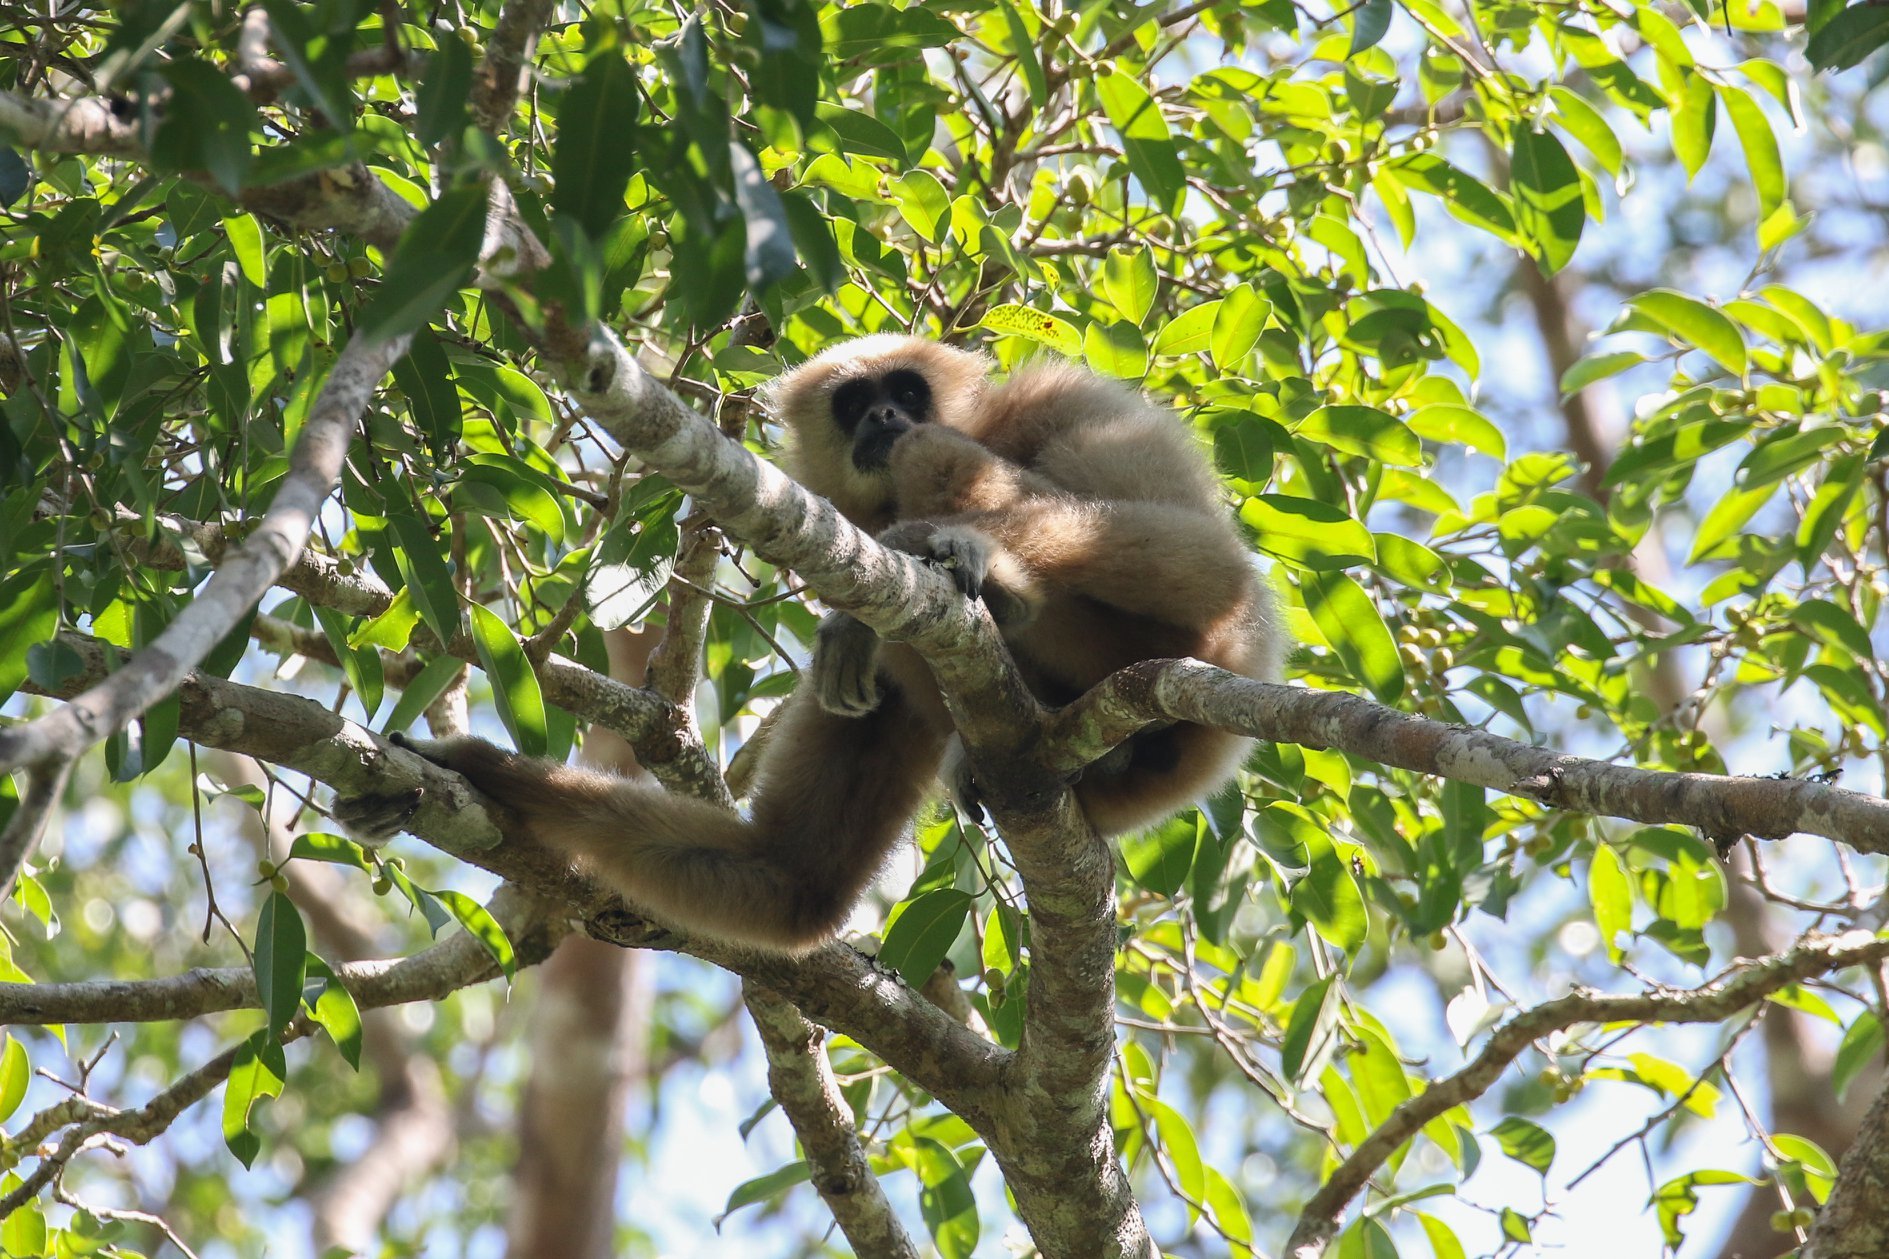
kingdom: Animalia
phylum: Chordata
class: Mammalia
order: Primates
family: Hylobatidae
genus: Hylobates
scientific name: Hylobates lar
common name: Lar gibbon
